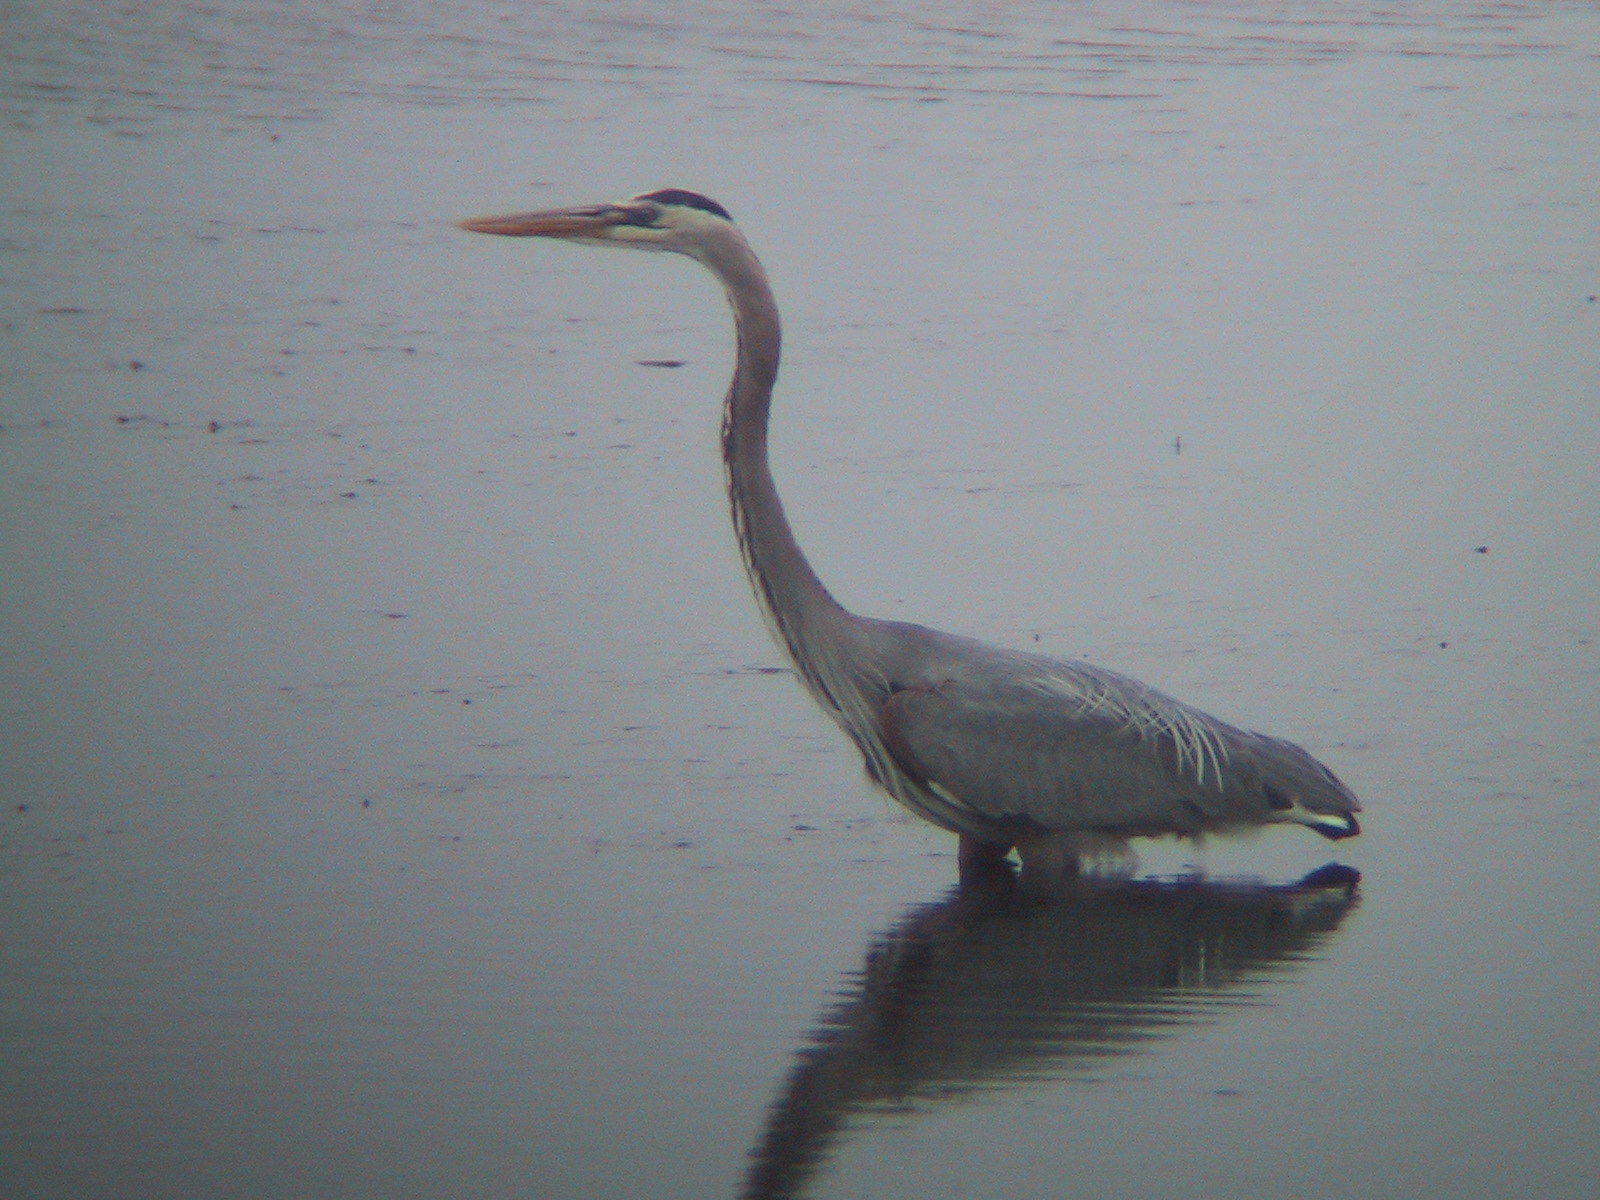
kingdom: Animalia
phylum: Chordata
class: Aves
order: Pelecaniformes
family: Ardeidae
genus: Ardea
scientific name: Ardea herodias
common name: Great blue heron
